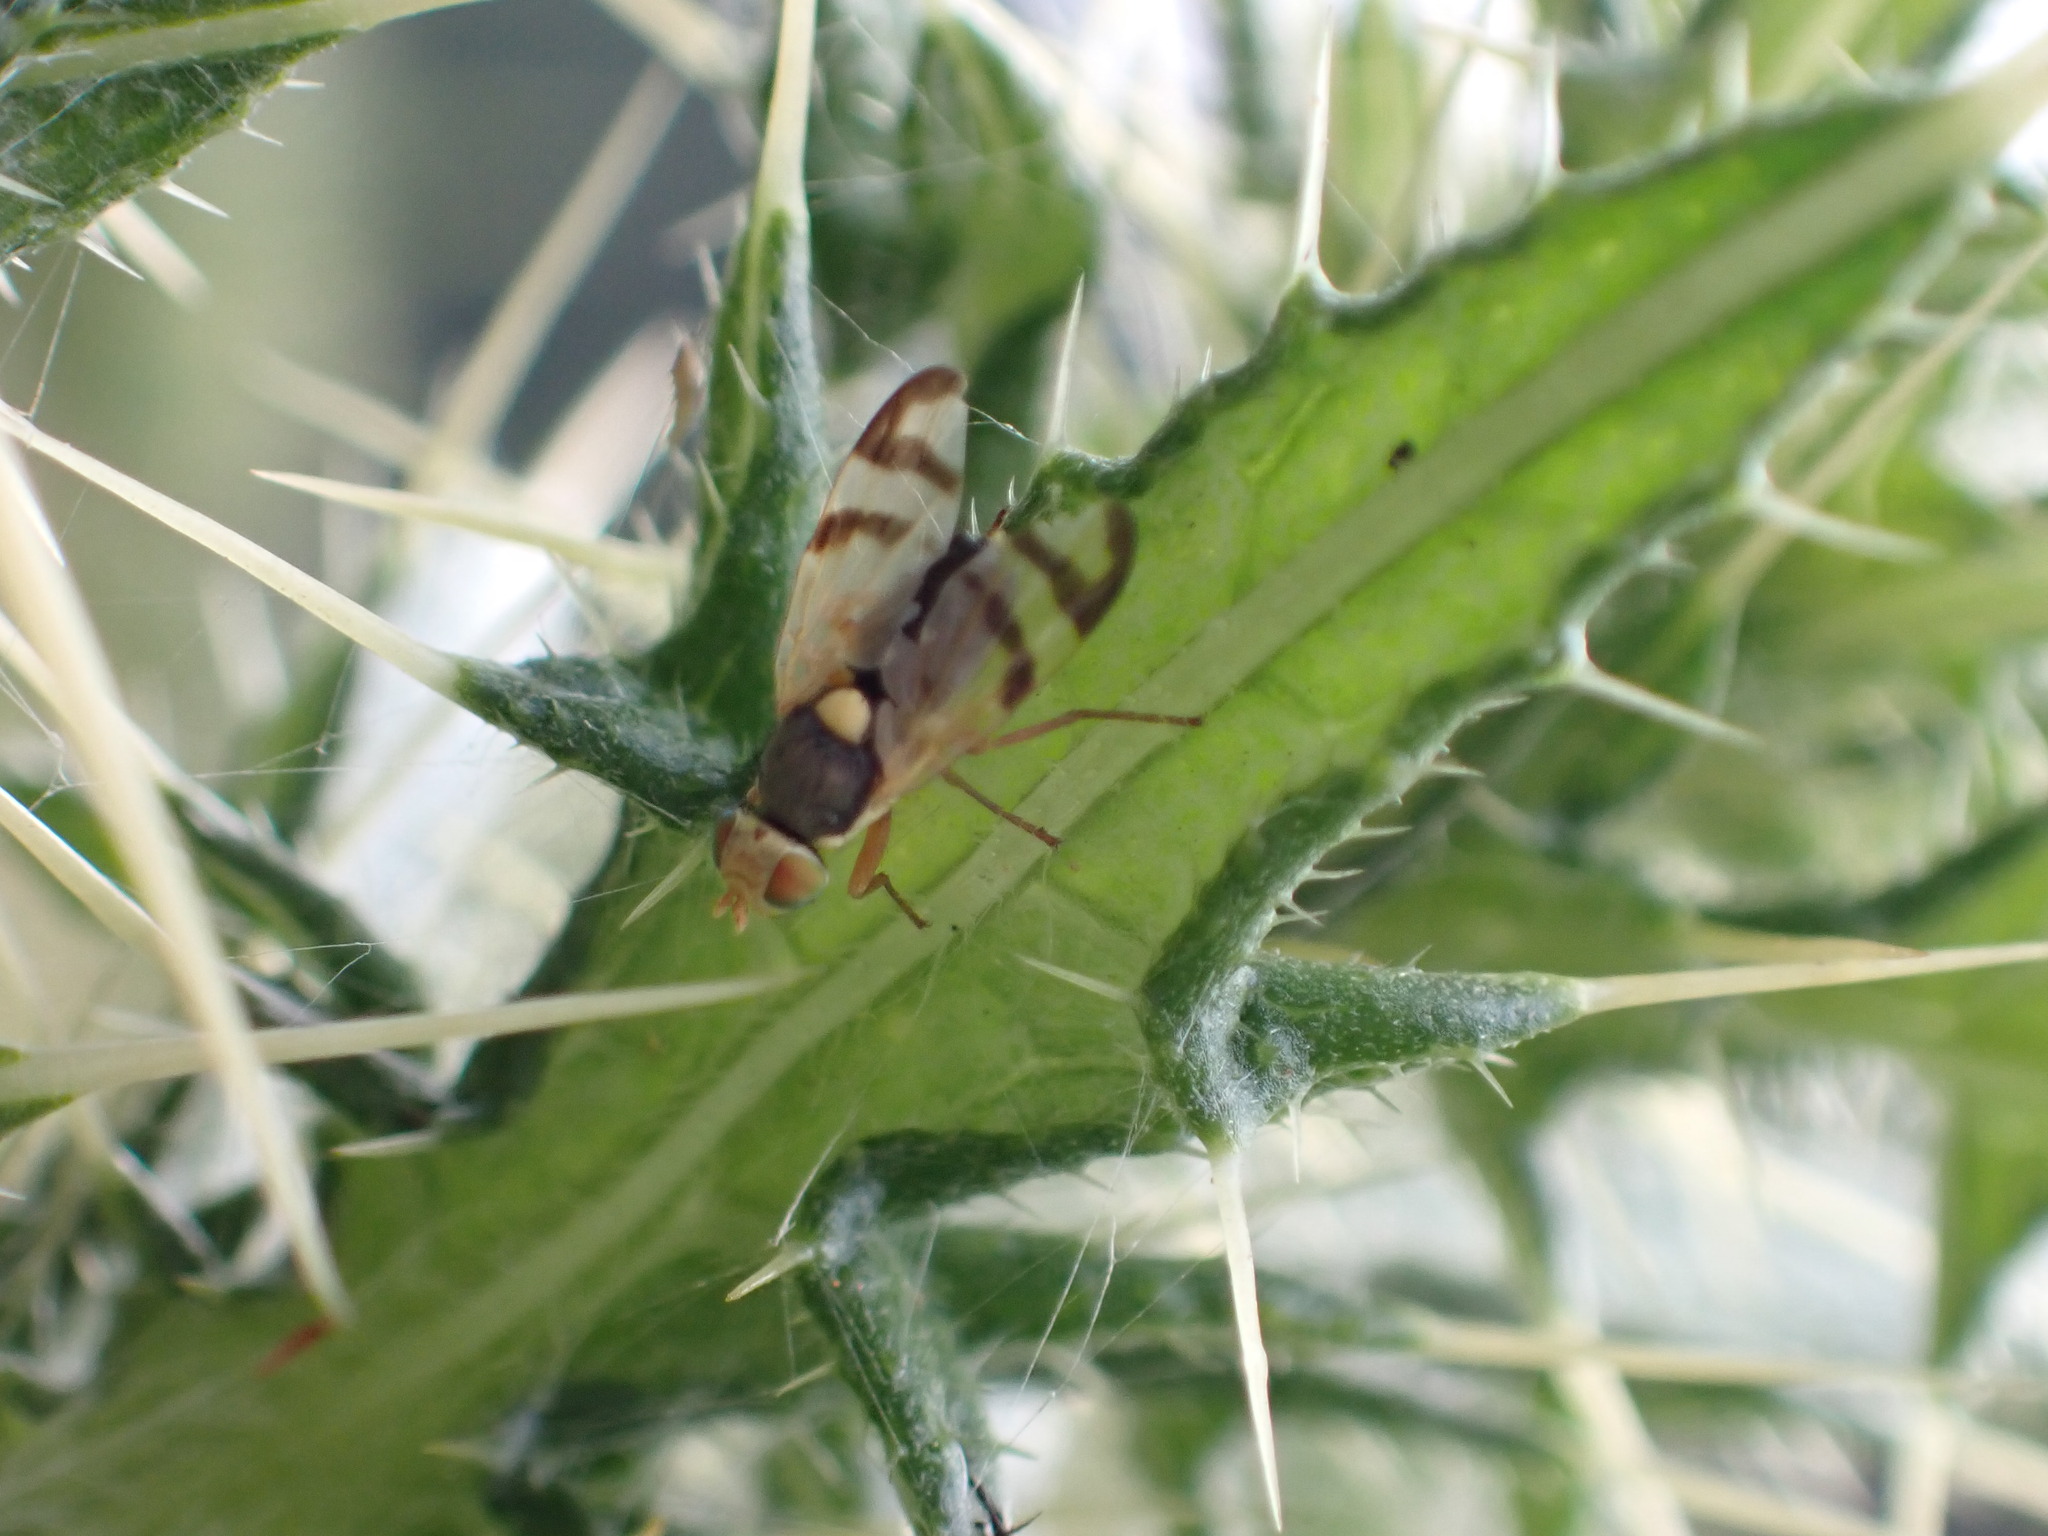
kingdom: Animalia
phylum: Arthropoda
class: Insecta
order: Diptera
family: Tephritidae
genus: Urophora
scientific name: Urophora stylata
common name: Fruit fly
